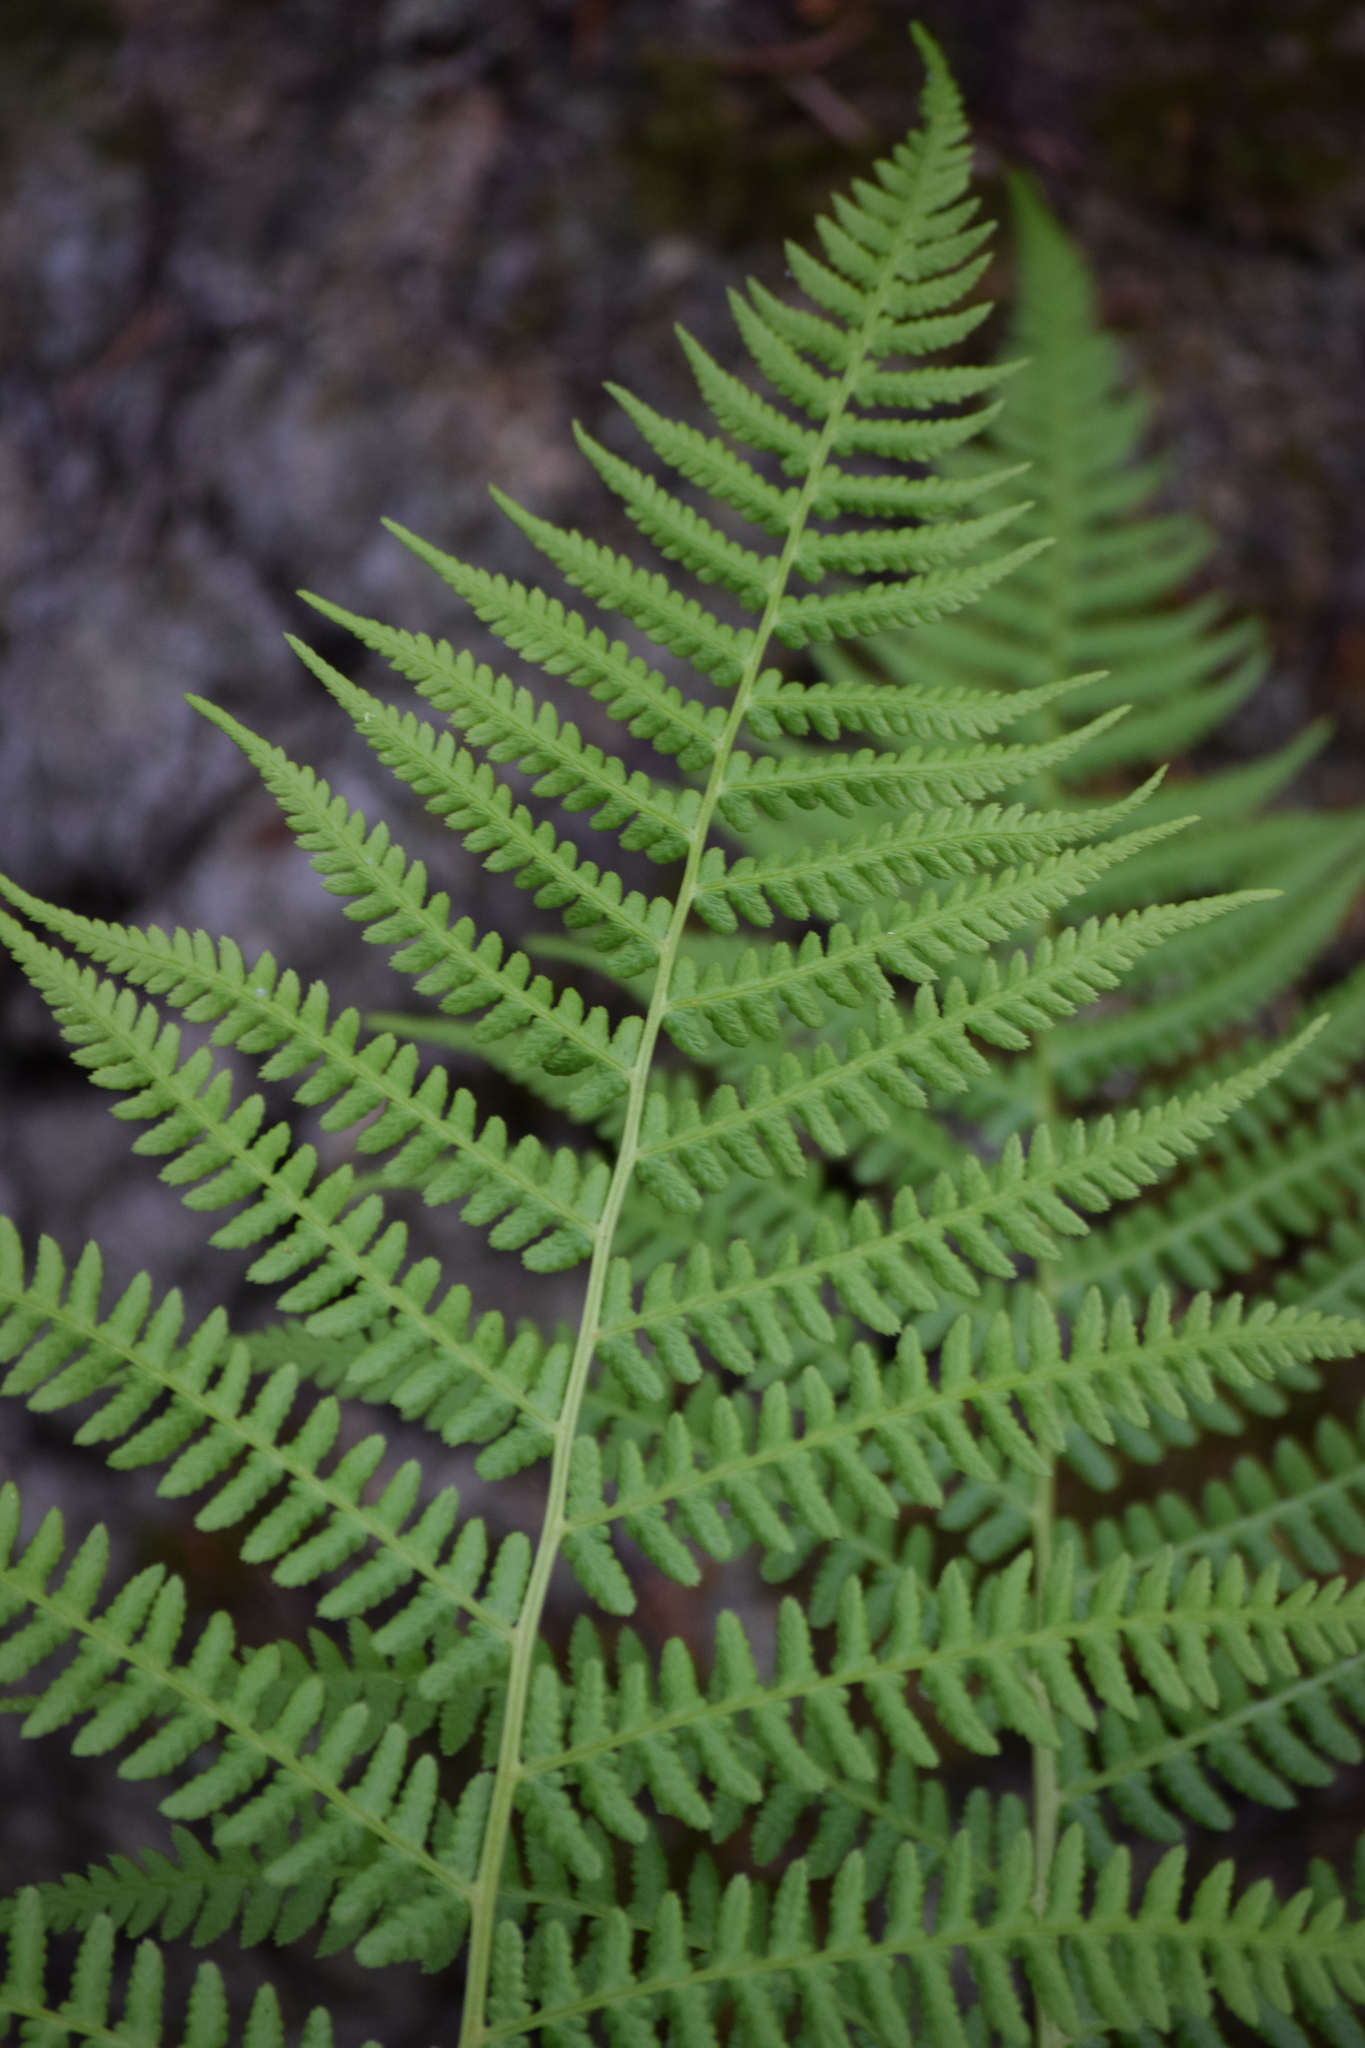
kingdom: Plantae
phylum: Tracheophyta
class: Polypodiopsida
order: Polypodiales
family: Athyriaceae
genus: Athyrium
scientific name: Athyrium filix-femina
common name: Lady fern
